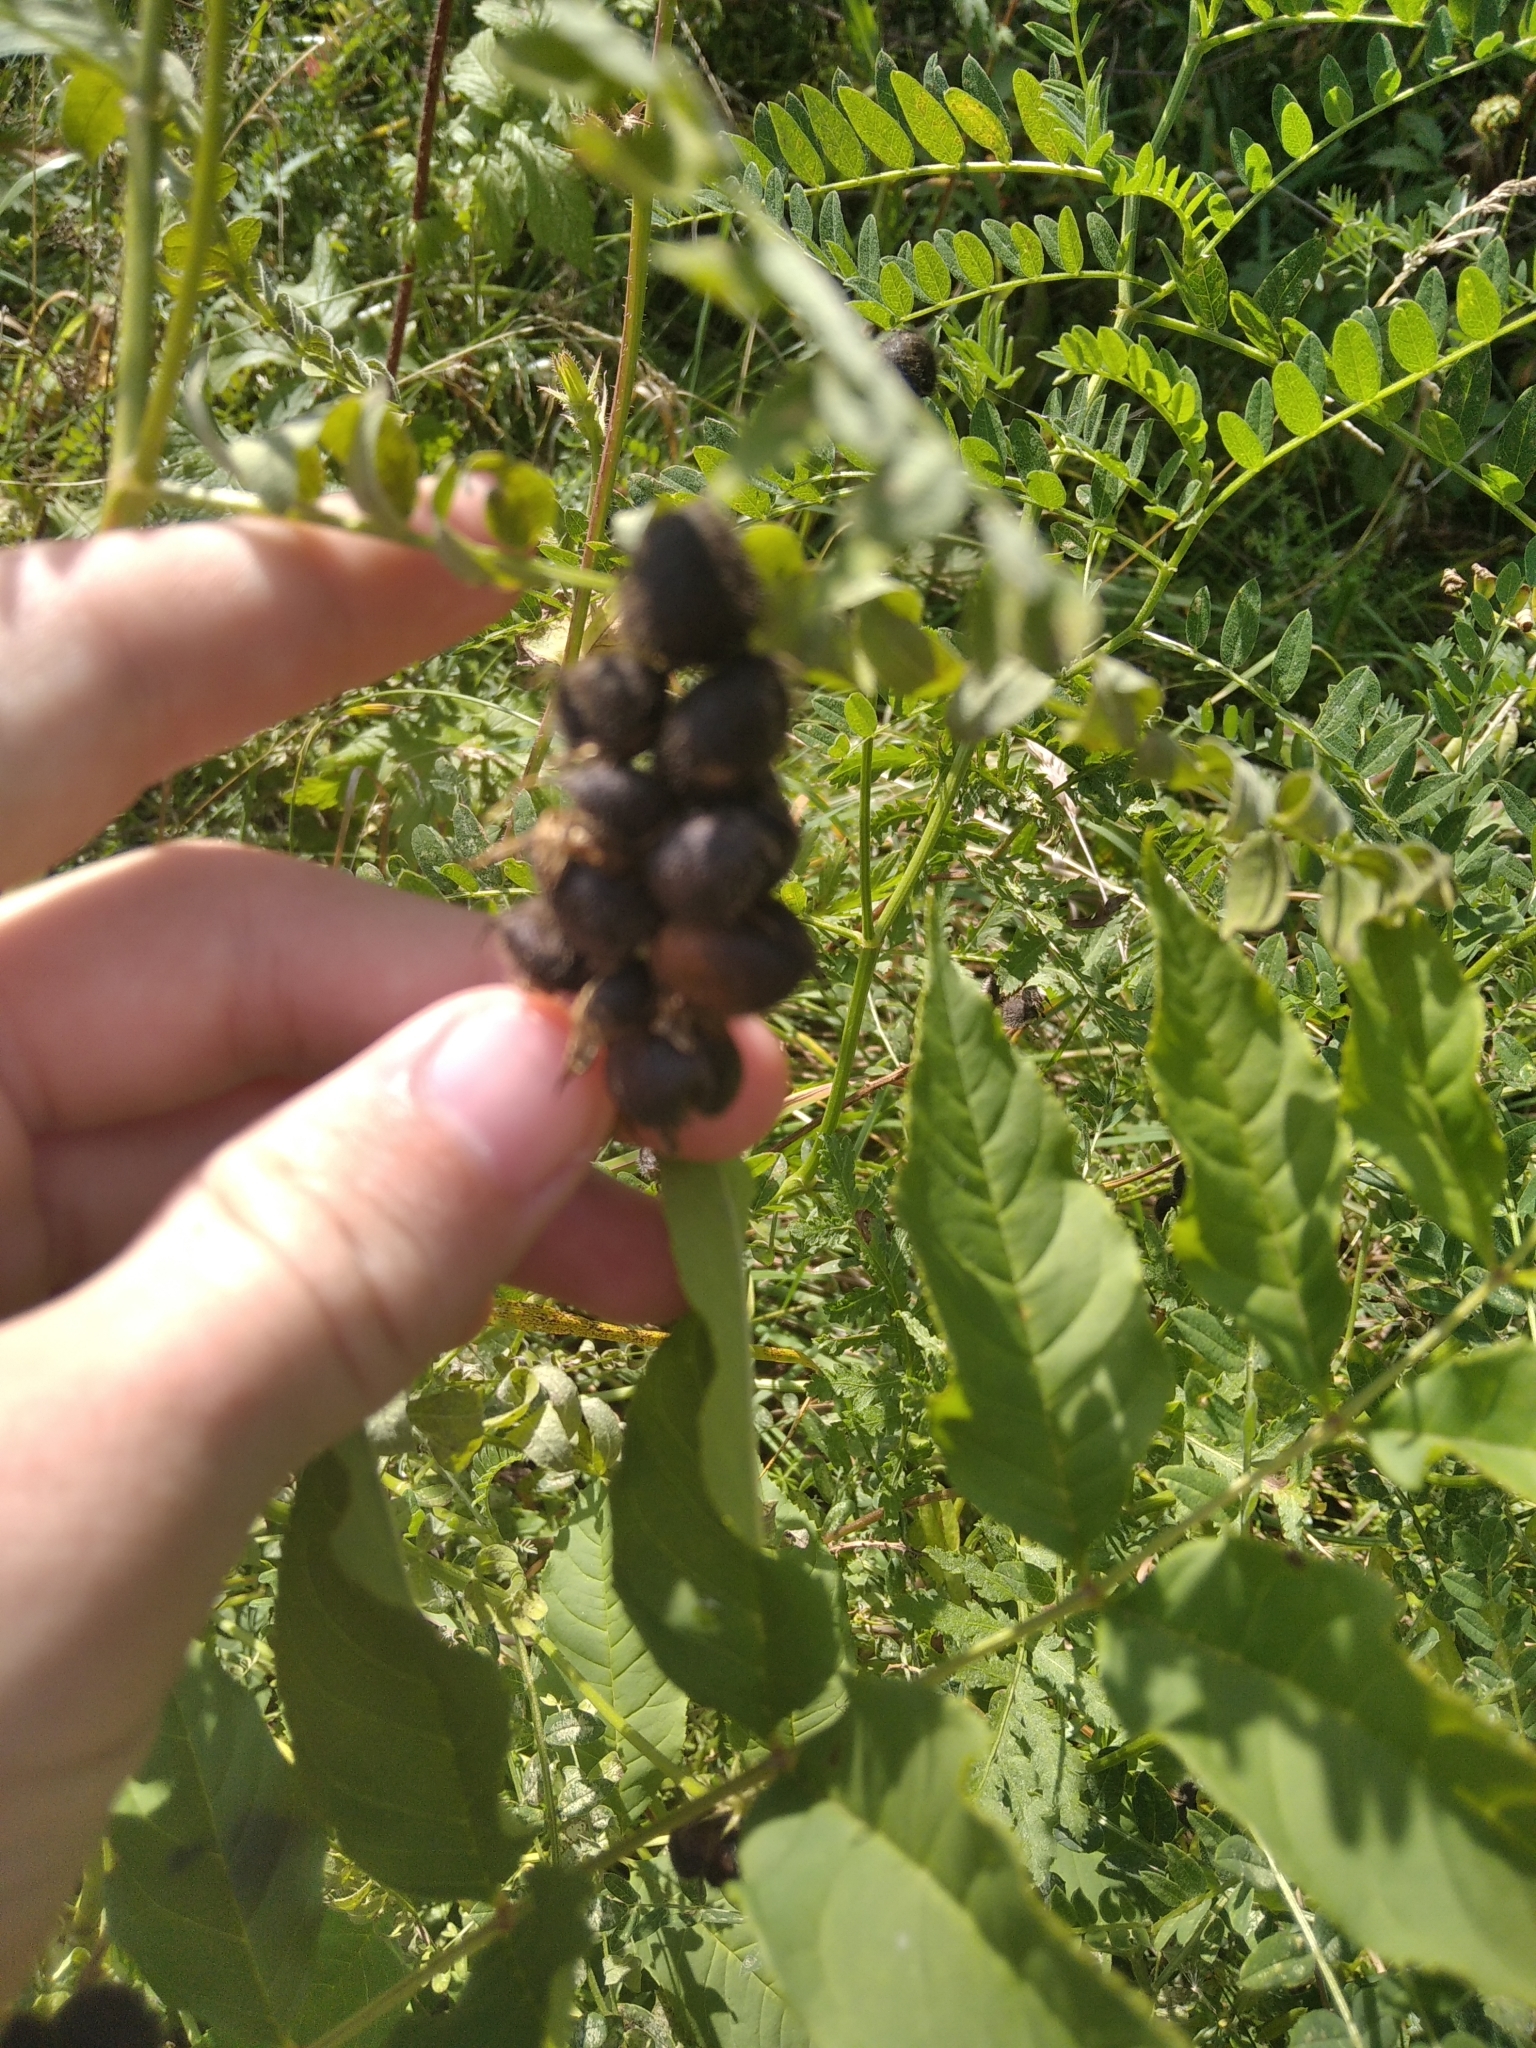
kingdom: Plantae
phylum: Tracheophyta
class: Magnoliopsida
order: Fabales
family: Fabaceae
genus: Astragalus
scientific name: Astragalus cicer
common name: Chick-pea milk-vetch
